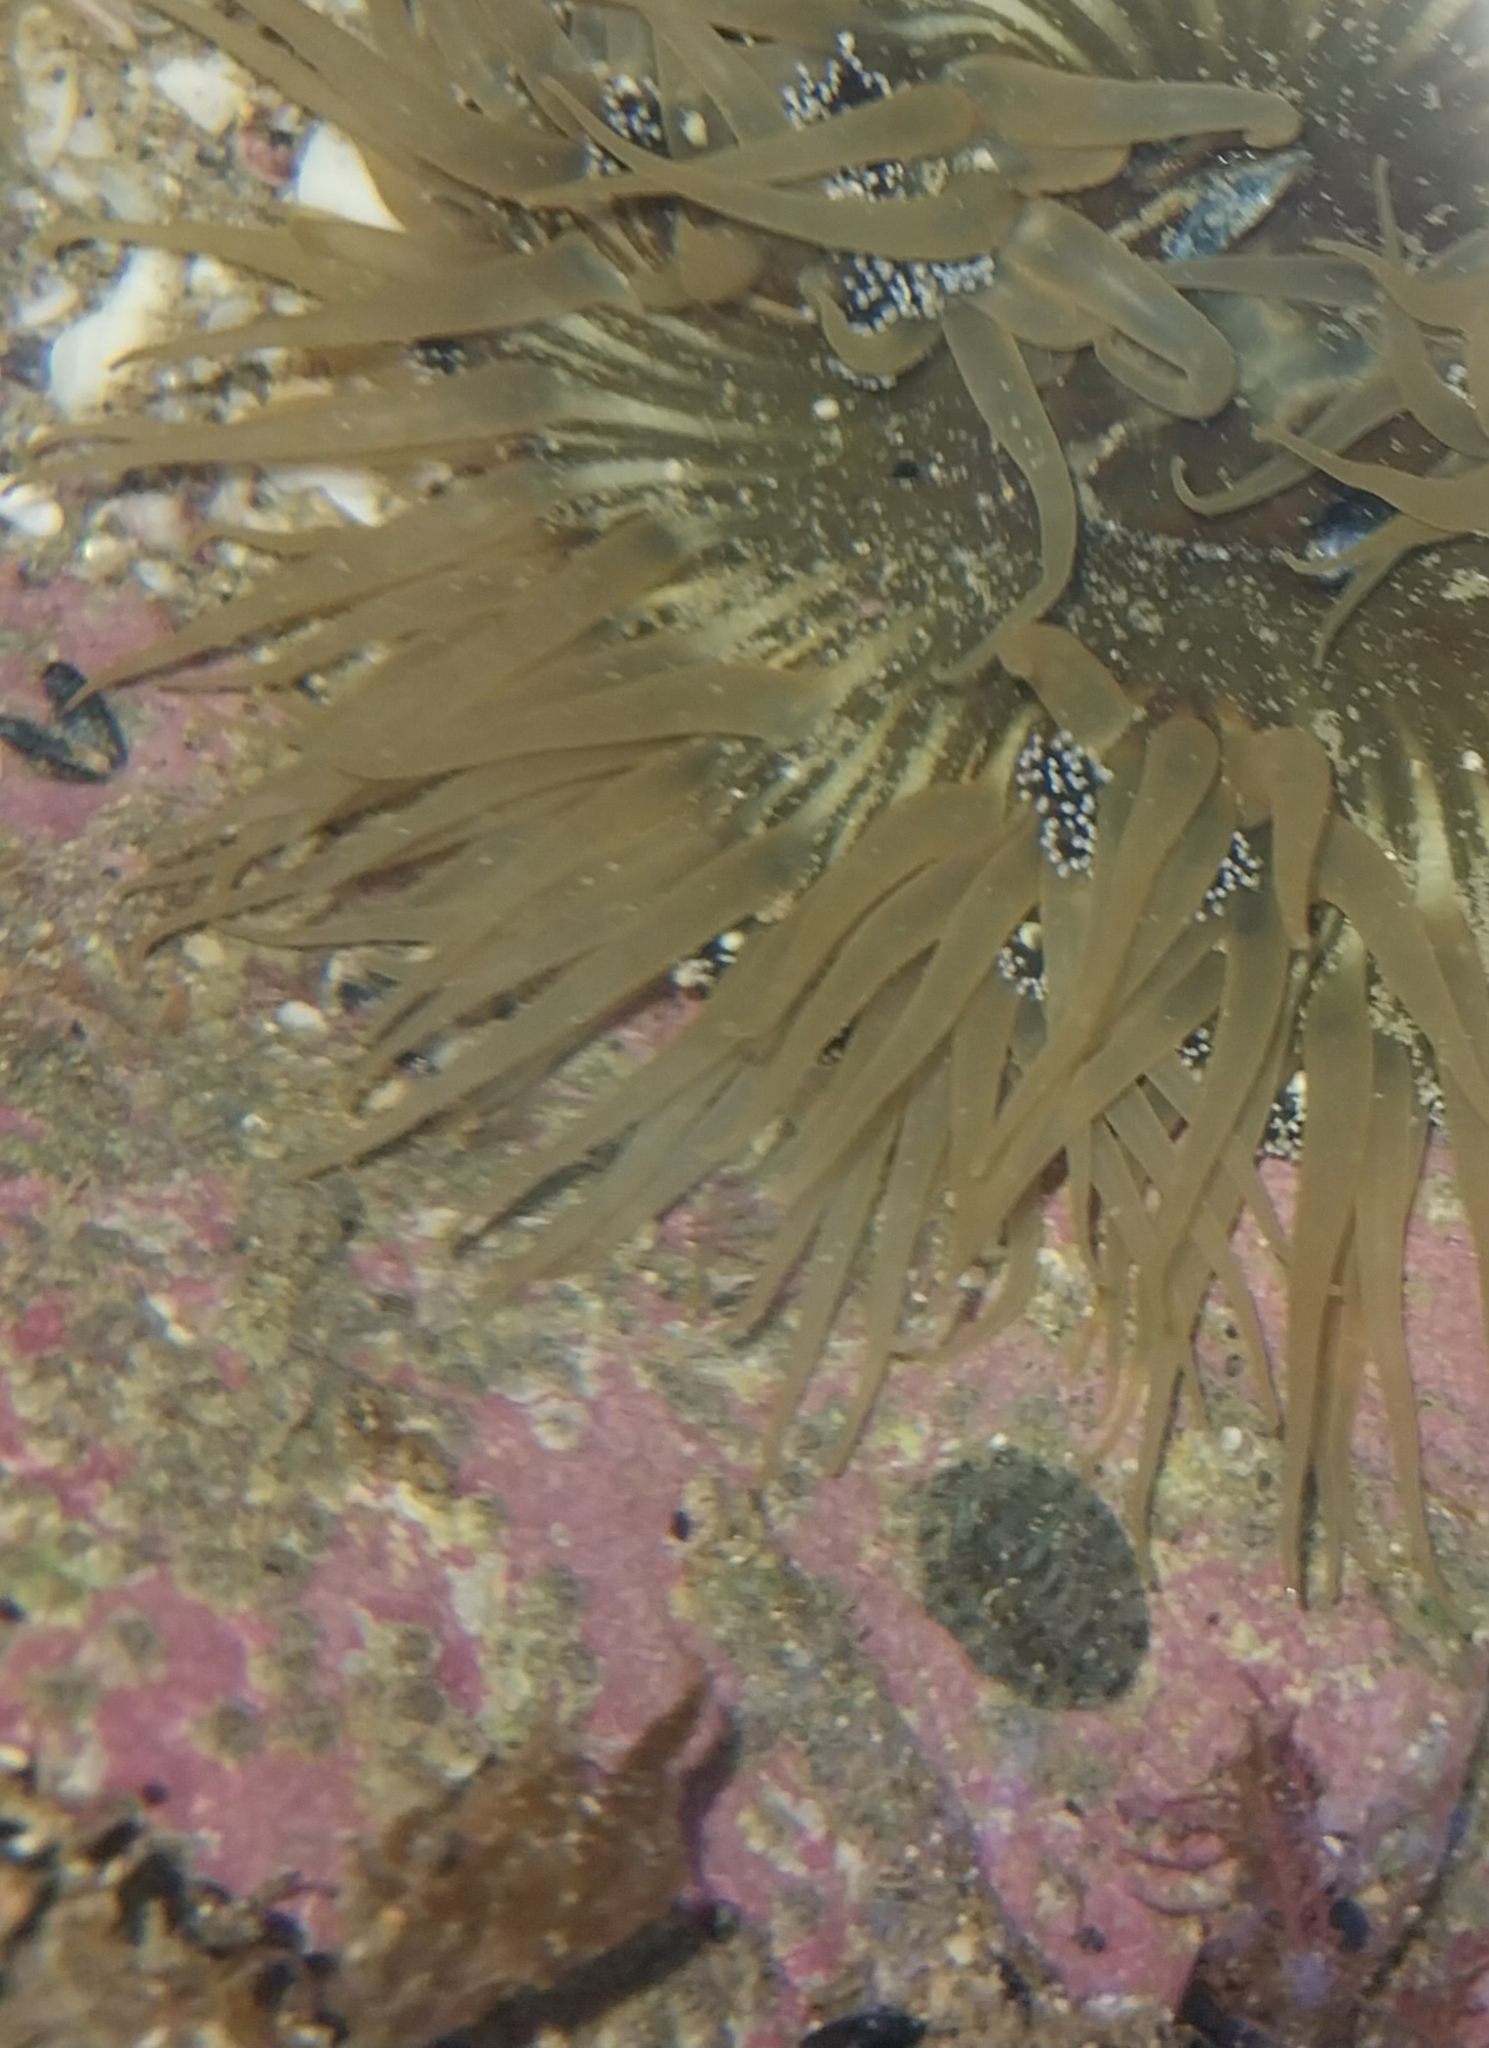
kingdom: Animalia
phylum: Cnidaria
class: Anthozoa
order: Actiniaria
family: Actiniidae
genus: Oulactis
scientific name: Oulactis magna
